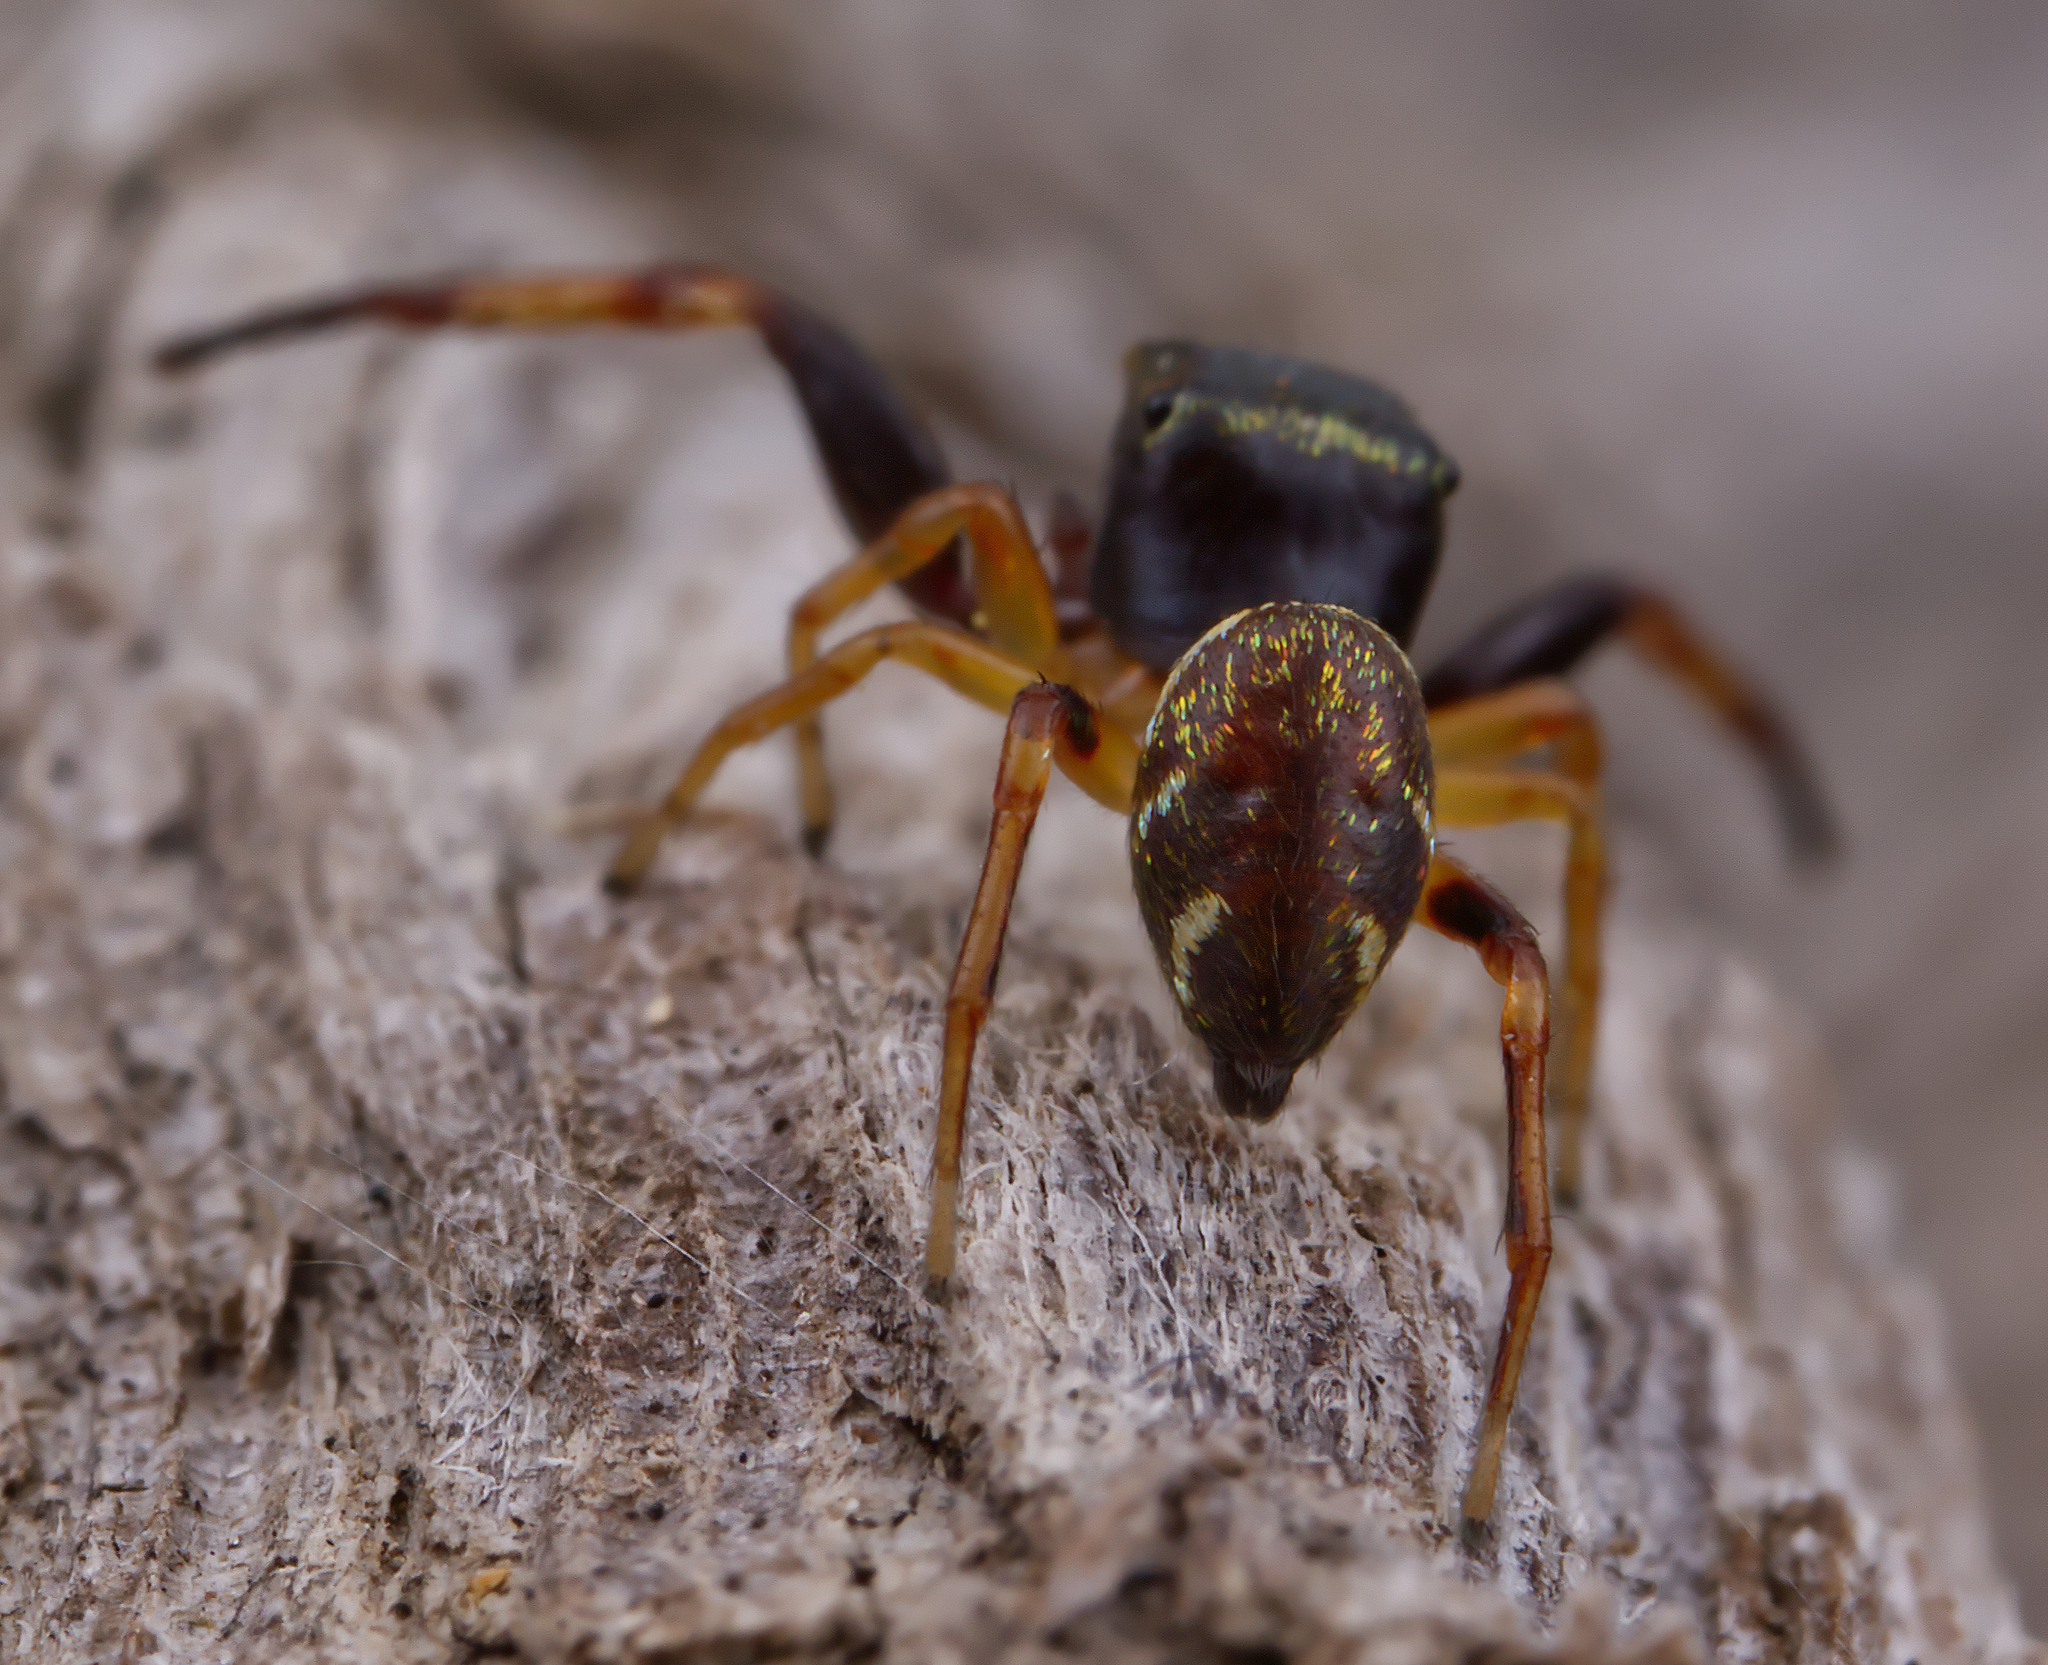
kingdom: Animalia
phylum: Arthropoda
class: Arachnida
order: Araneae
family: Salticidae
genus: Zygoballus
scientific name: Zygoballus rufipes
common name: Jumping spiders
